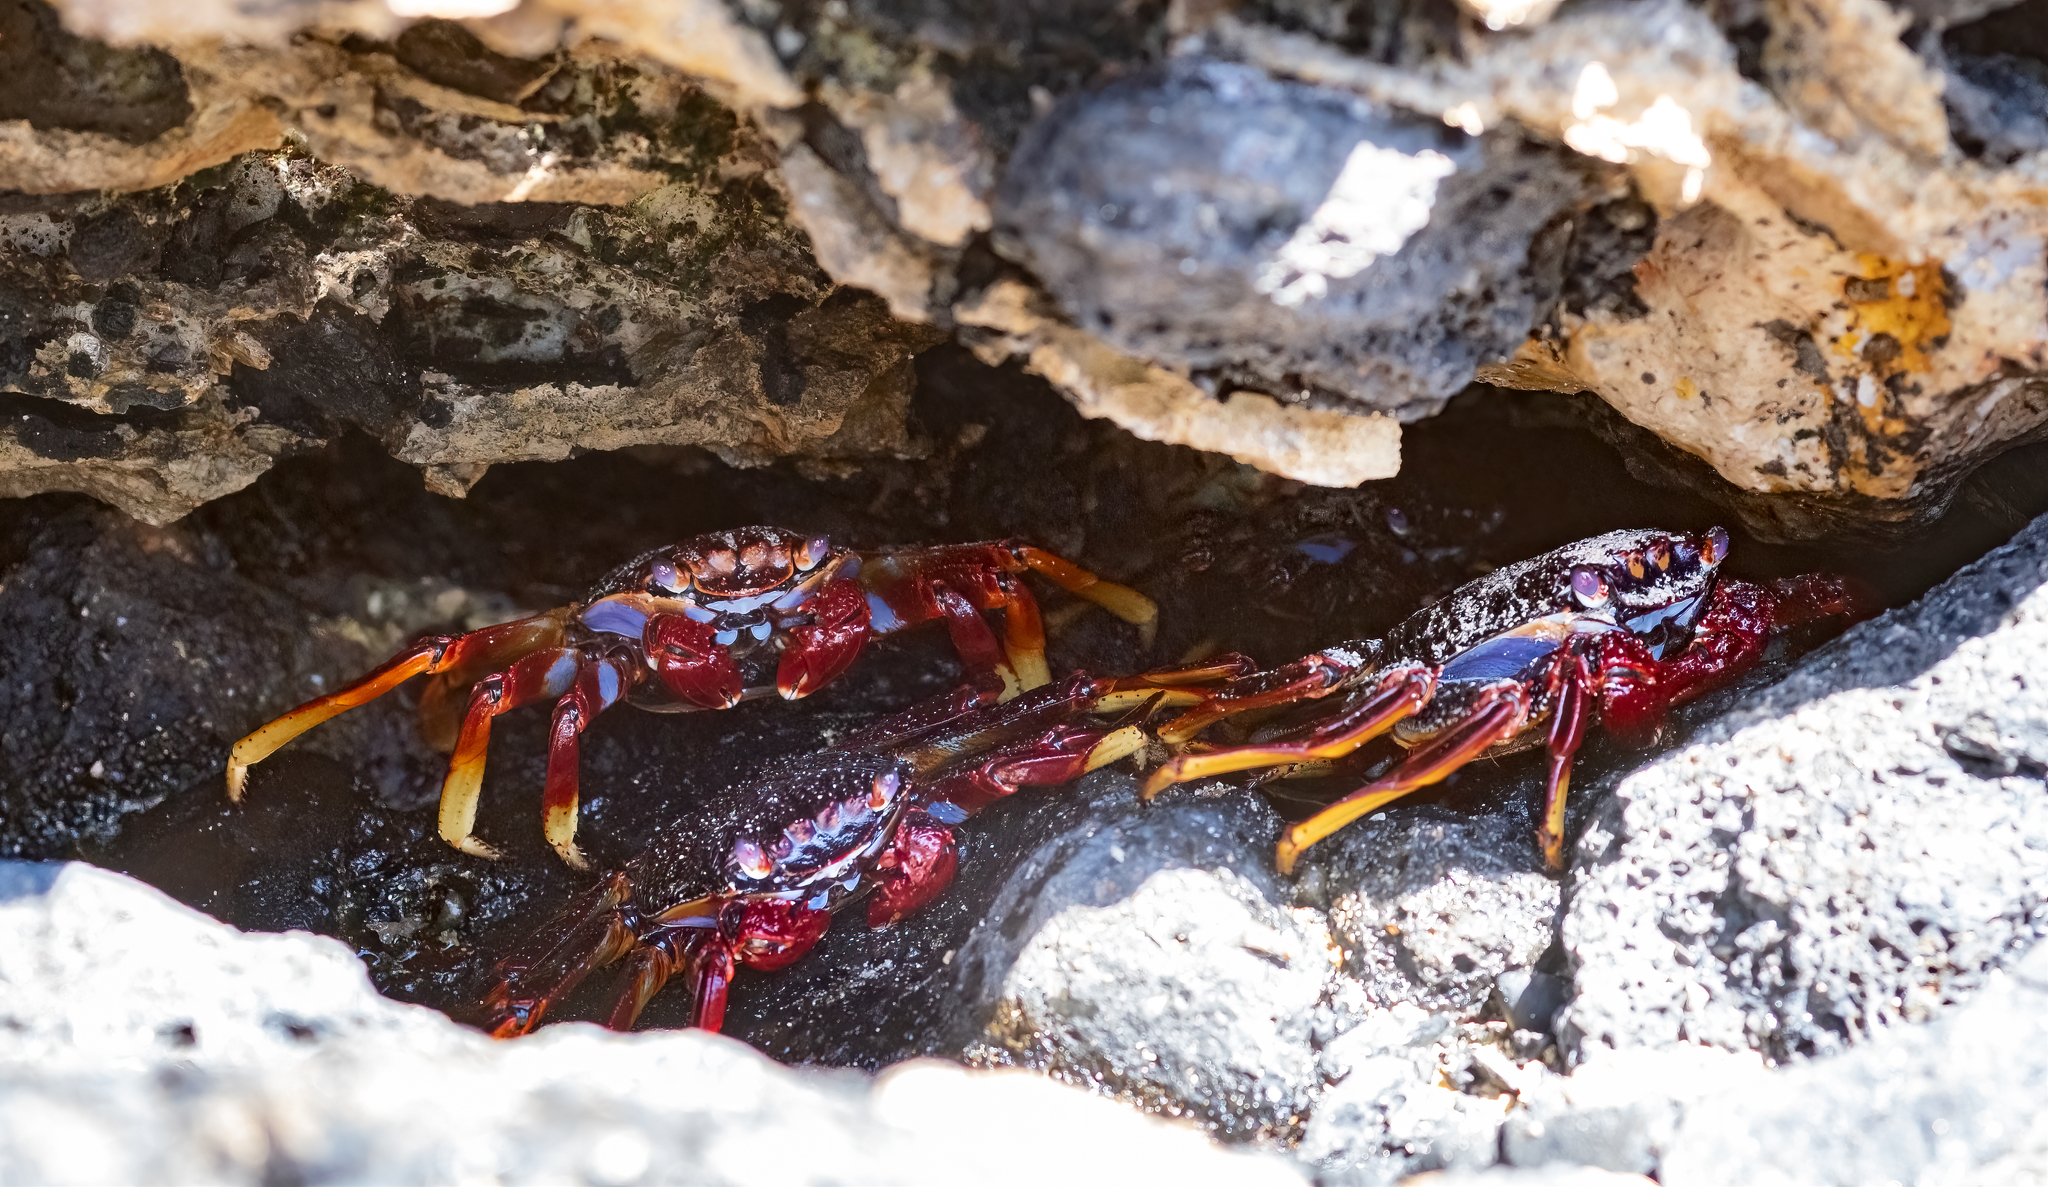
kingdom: Animalia
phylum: Arthropoda
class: Malacostraca
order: Decapoda
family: Grapsidae
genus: Grapsus
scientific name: Grapsus adscensionis
